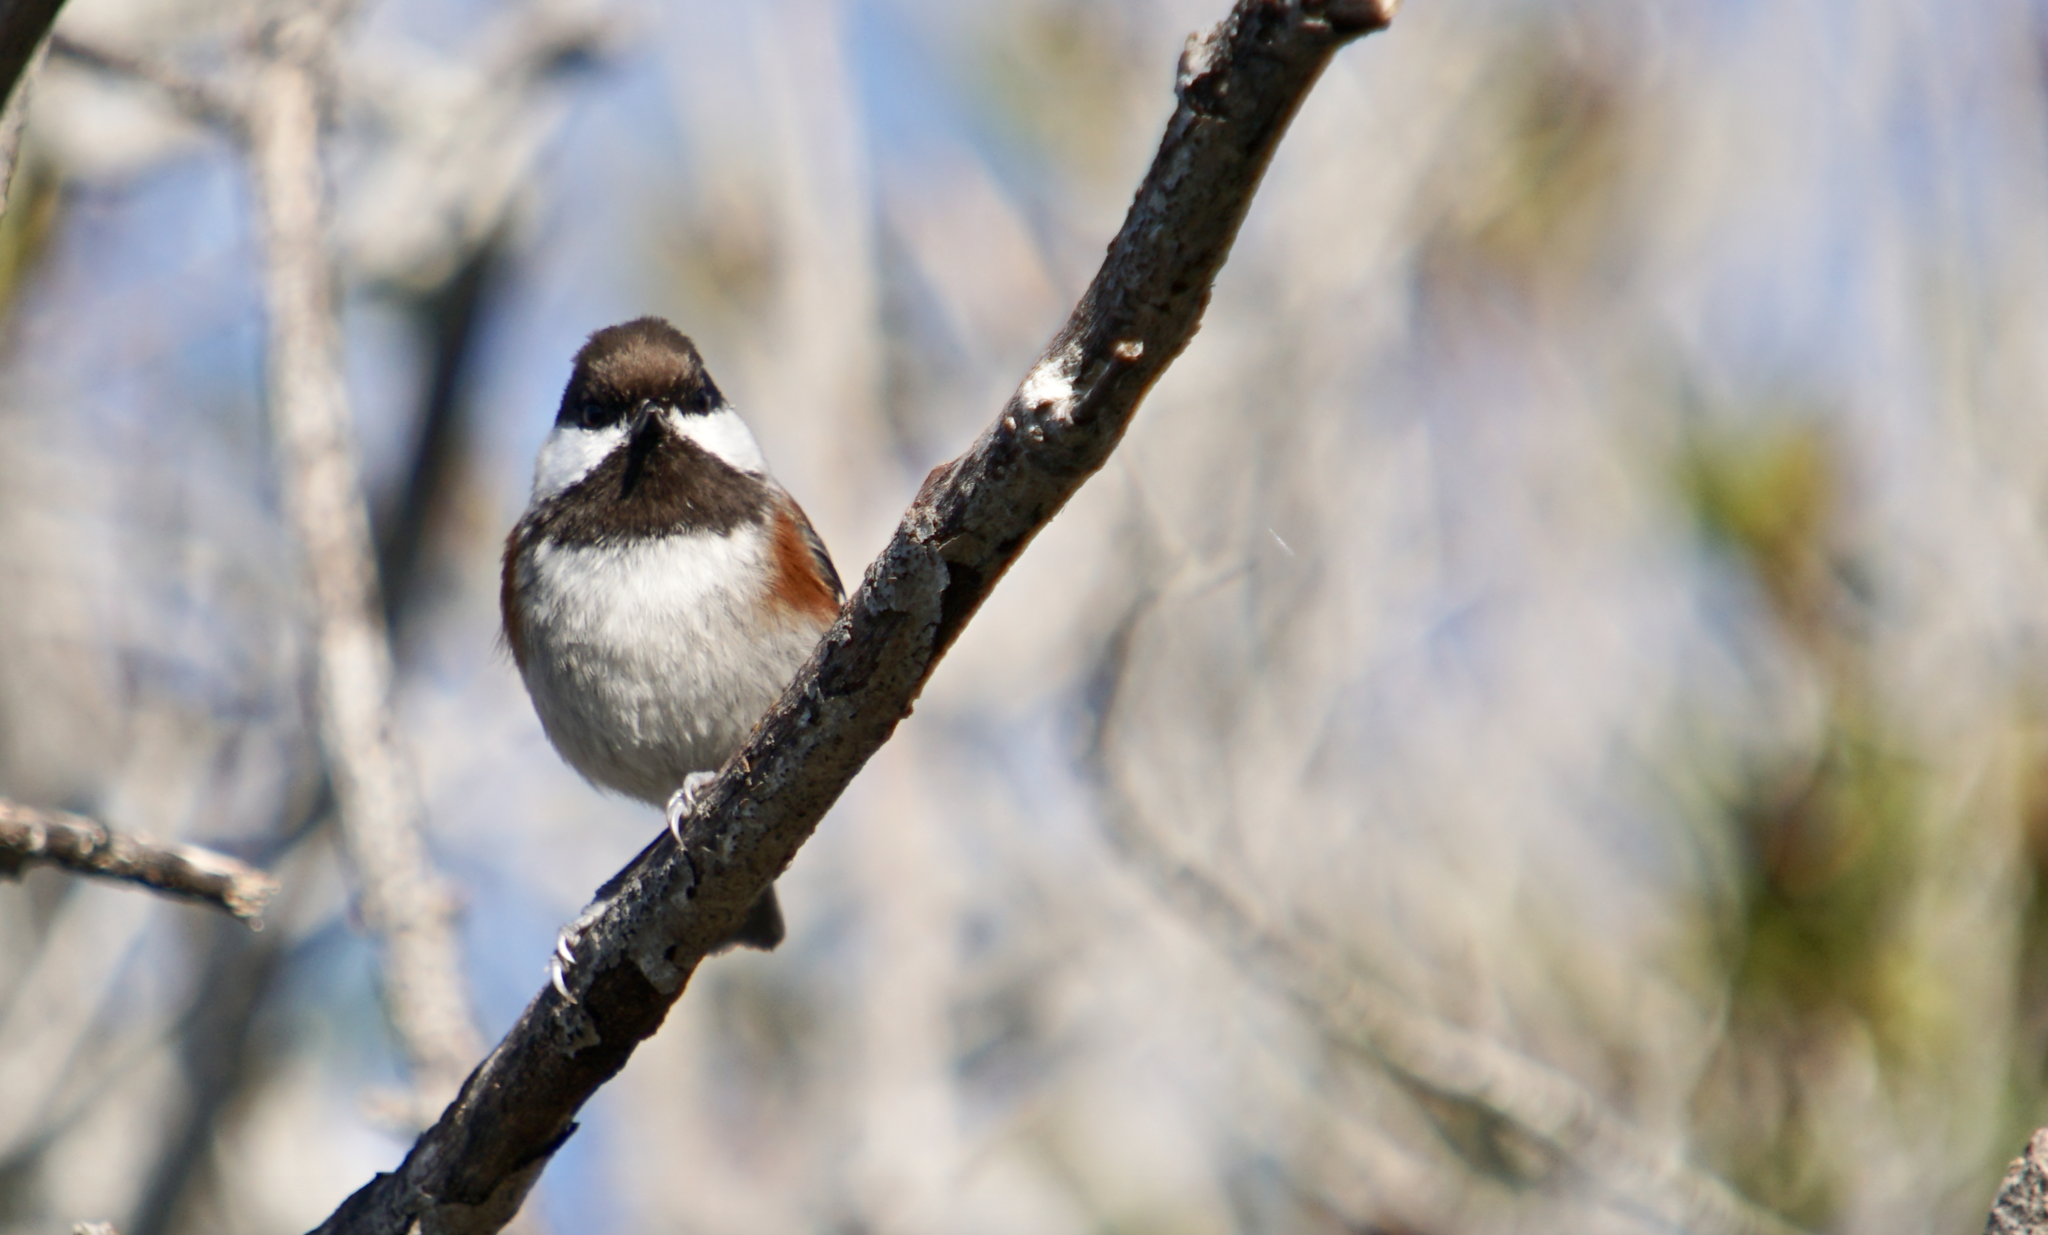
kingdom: Animalia
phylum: Chordata
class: Aves
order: Passeriformes
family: Paridae
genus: Poecile
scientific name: Poecile rufescens
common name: Chestnut-backed chickadee
